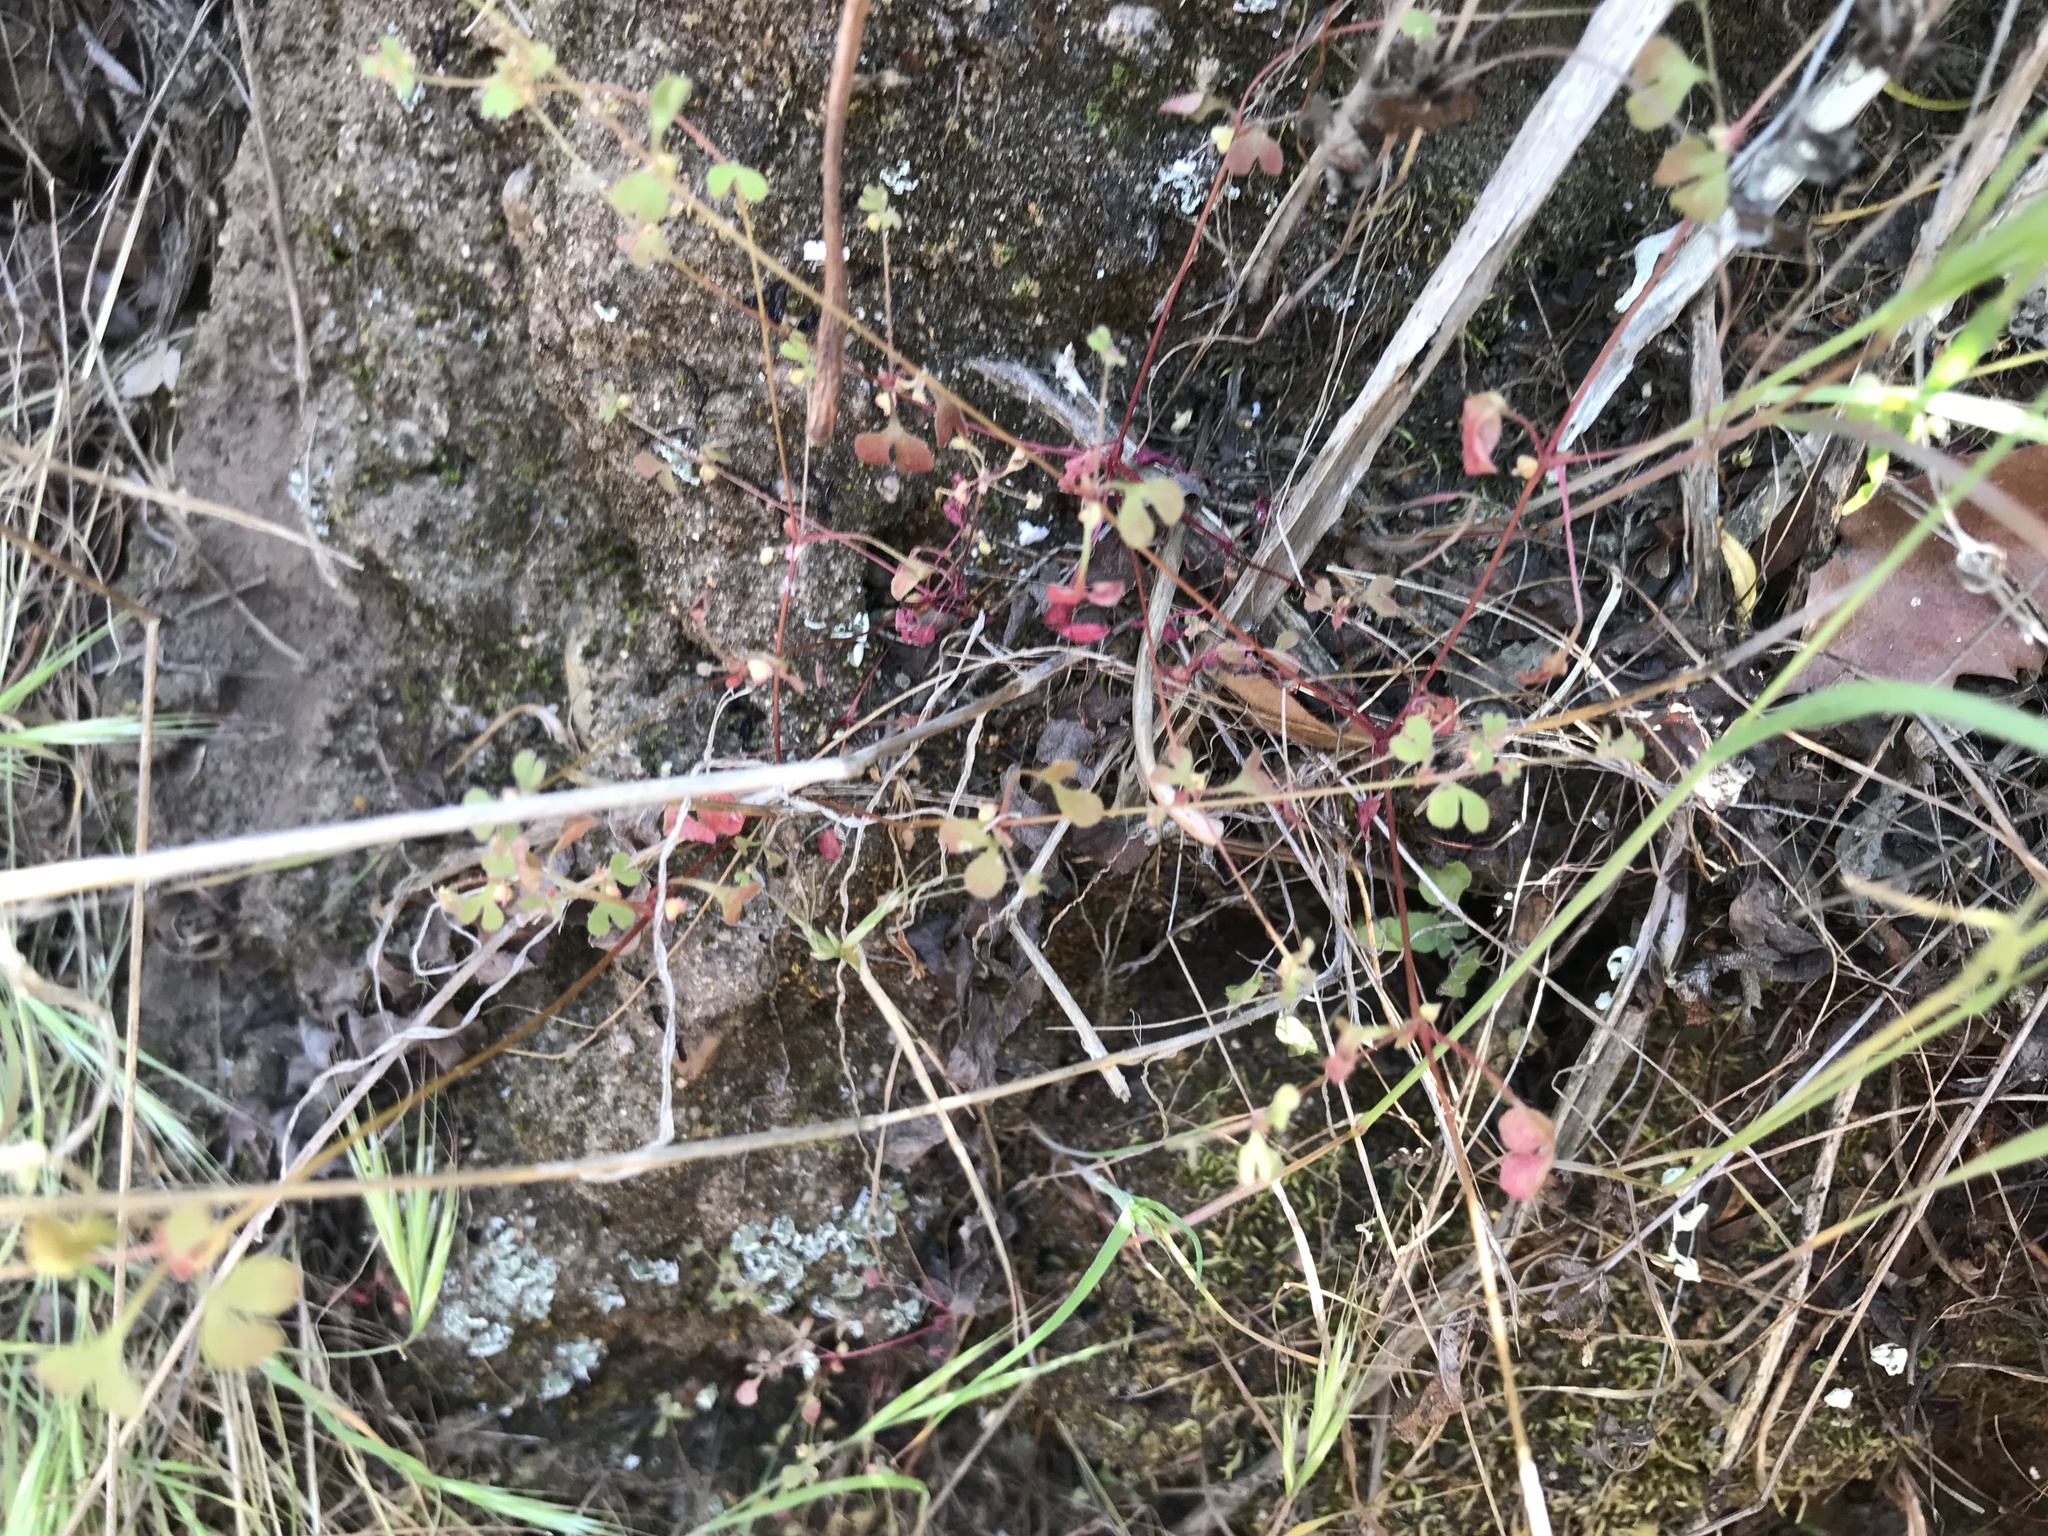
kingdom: Plantae
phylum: Tracheophyta
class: Magnoliopsida
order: Caryophyllales
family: Polygonaceae
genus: Pterostegia
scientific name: Pterostegia drymarioides
